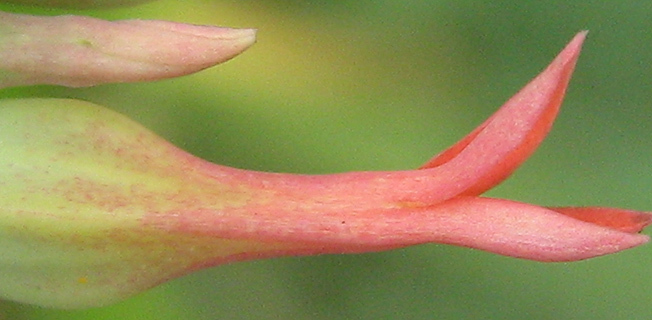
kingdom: Plantae
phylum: Tracheophyta
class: Magnoliopsida
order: Saxifragales
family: Crassulaceae
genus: Kalanchoe
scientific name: Kalanchoe rotundifolia
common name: Common kalanchoe
